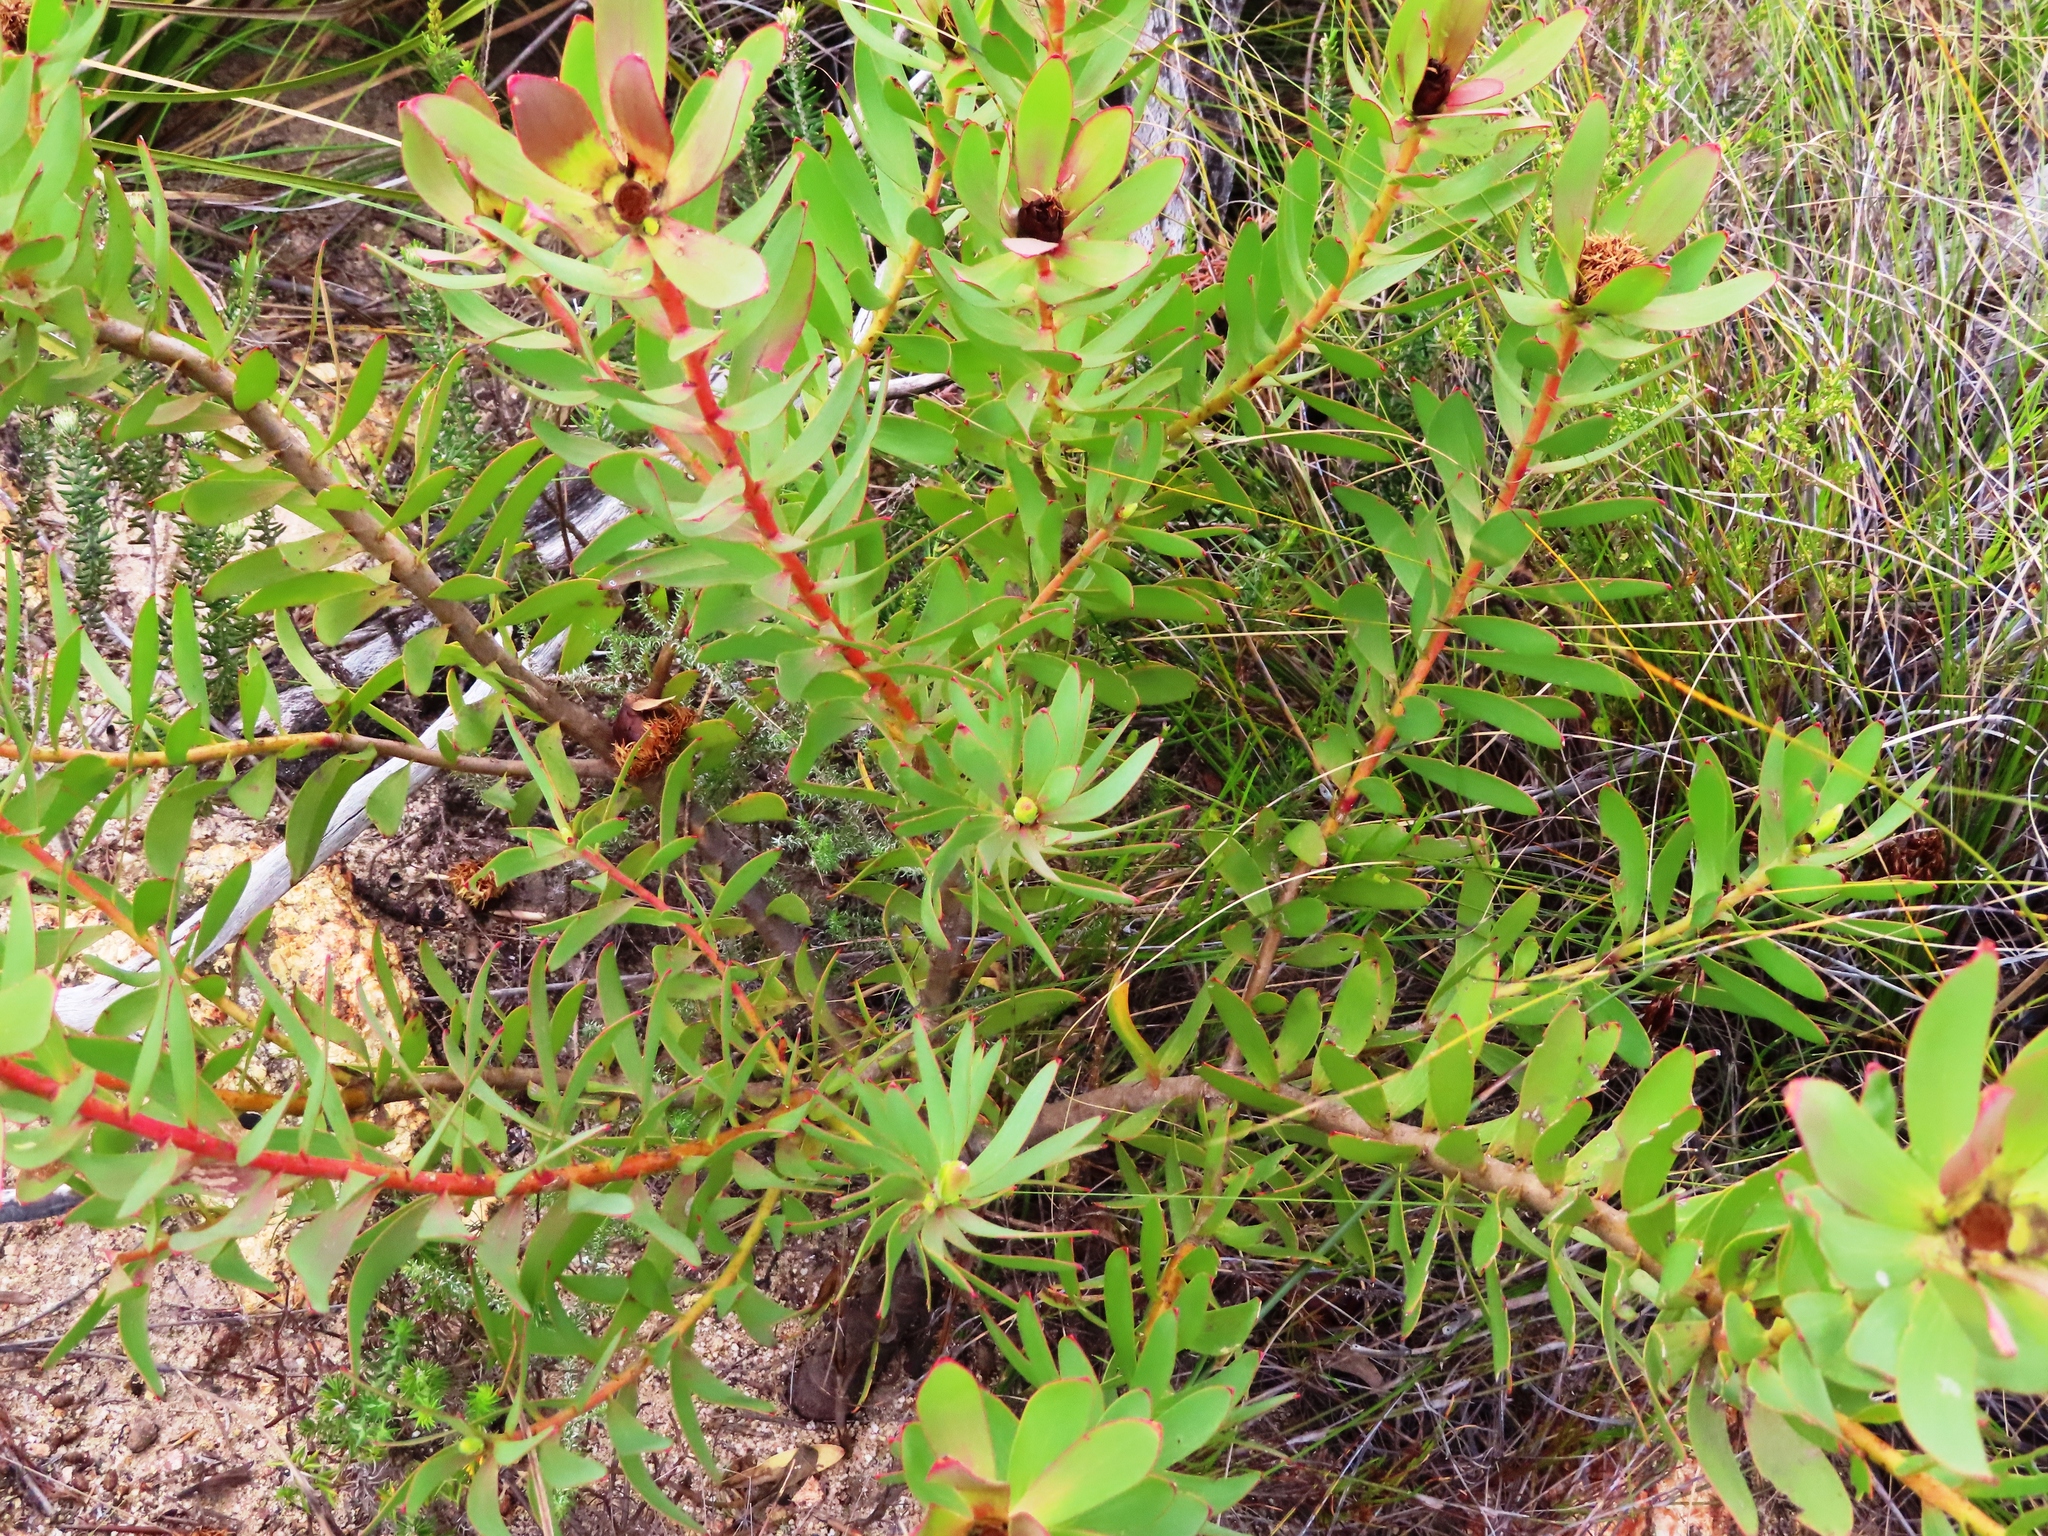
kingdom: Plantae
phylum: Tracheophyta
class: Magnoliopsida
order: Proteales
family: Proteaceae
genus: Leucadendron
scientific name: Leucadendron sessile
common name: Western sunbush
